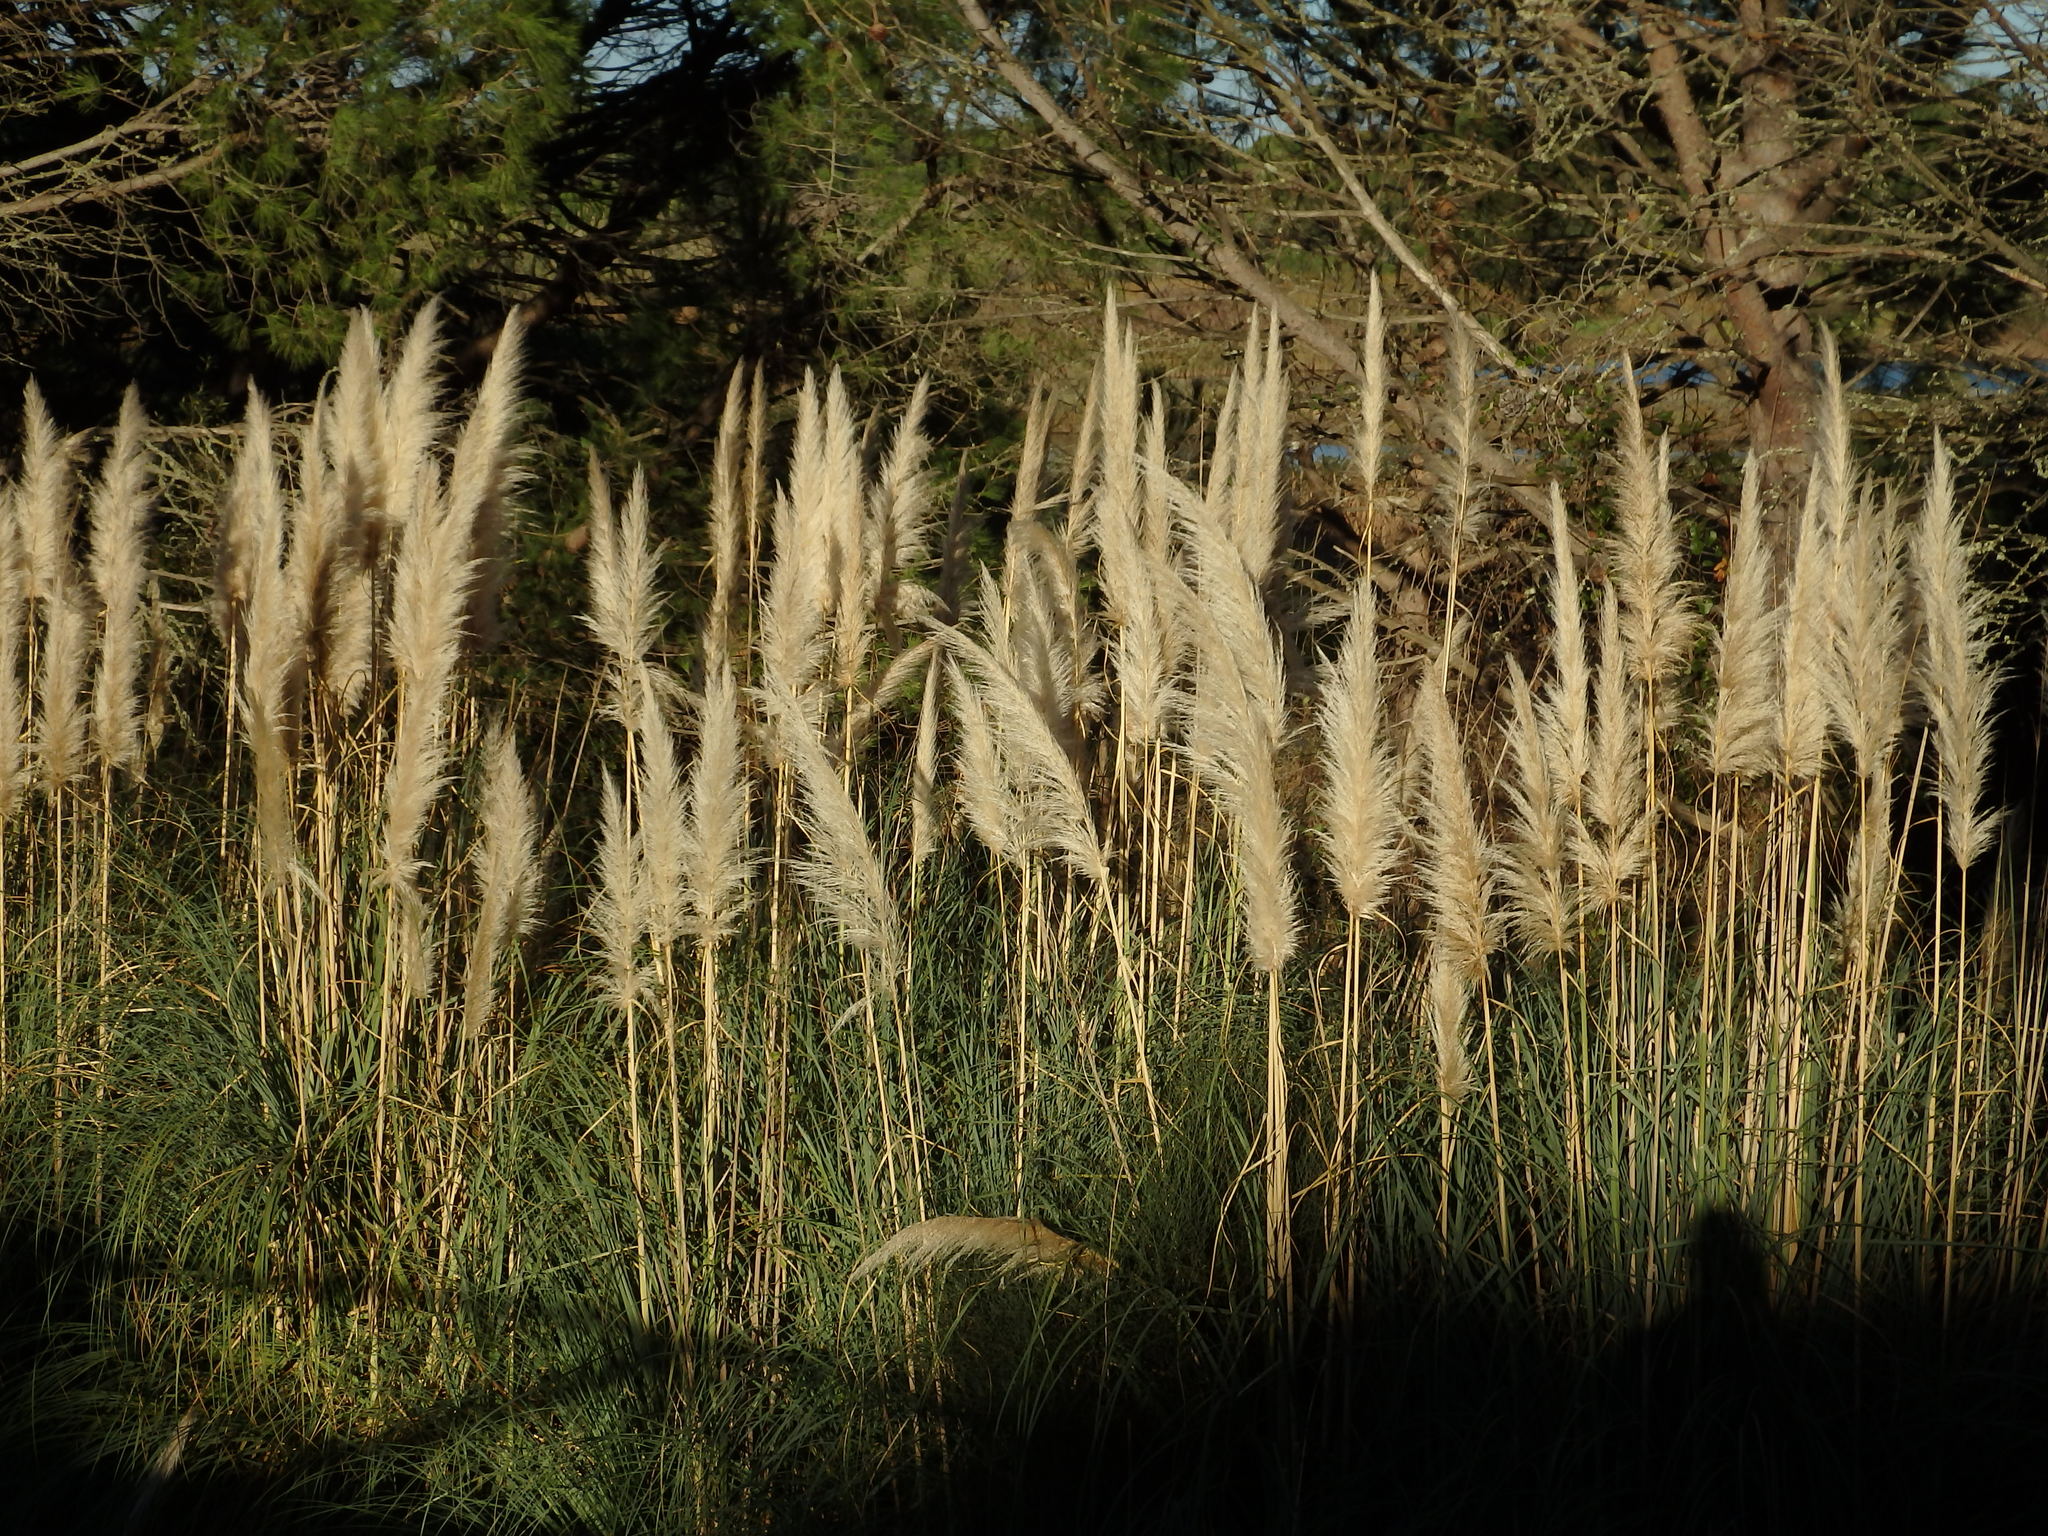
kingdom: Plantae
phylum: Tracheophyta
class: Liliopsida
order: Poales
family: Poaceae
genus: Cortaderia
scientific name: Cortaderia selloana
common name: Uruguayan pampas grass
